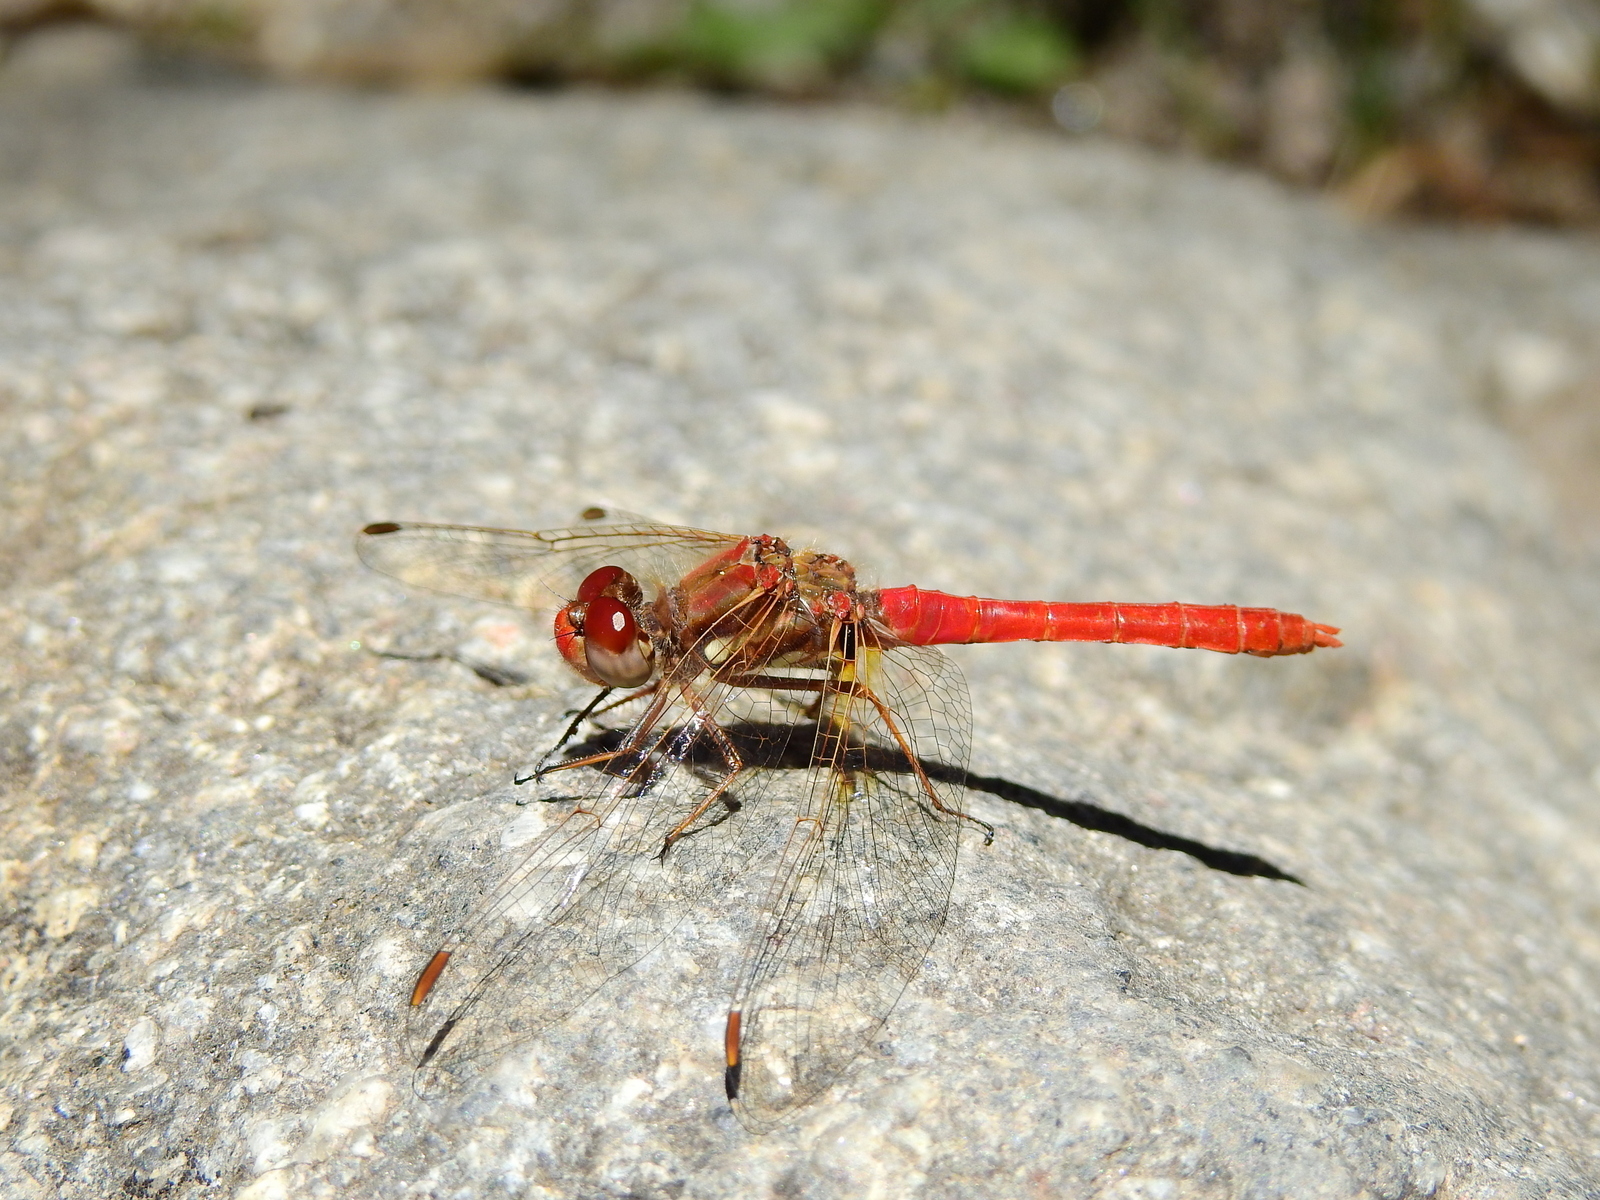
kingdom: Animalia
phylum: Arthropoda
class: Insecta
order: Odonata
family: Libellulidae
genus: Sympetrum
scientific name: Sympetrum gilvum
